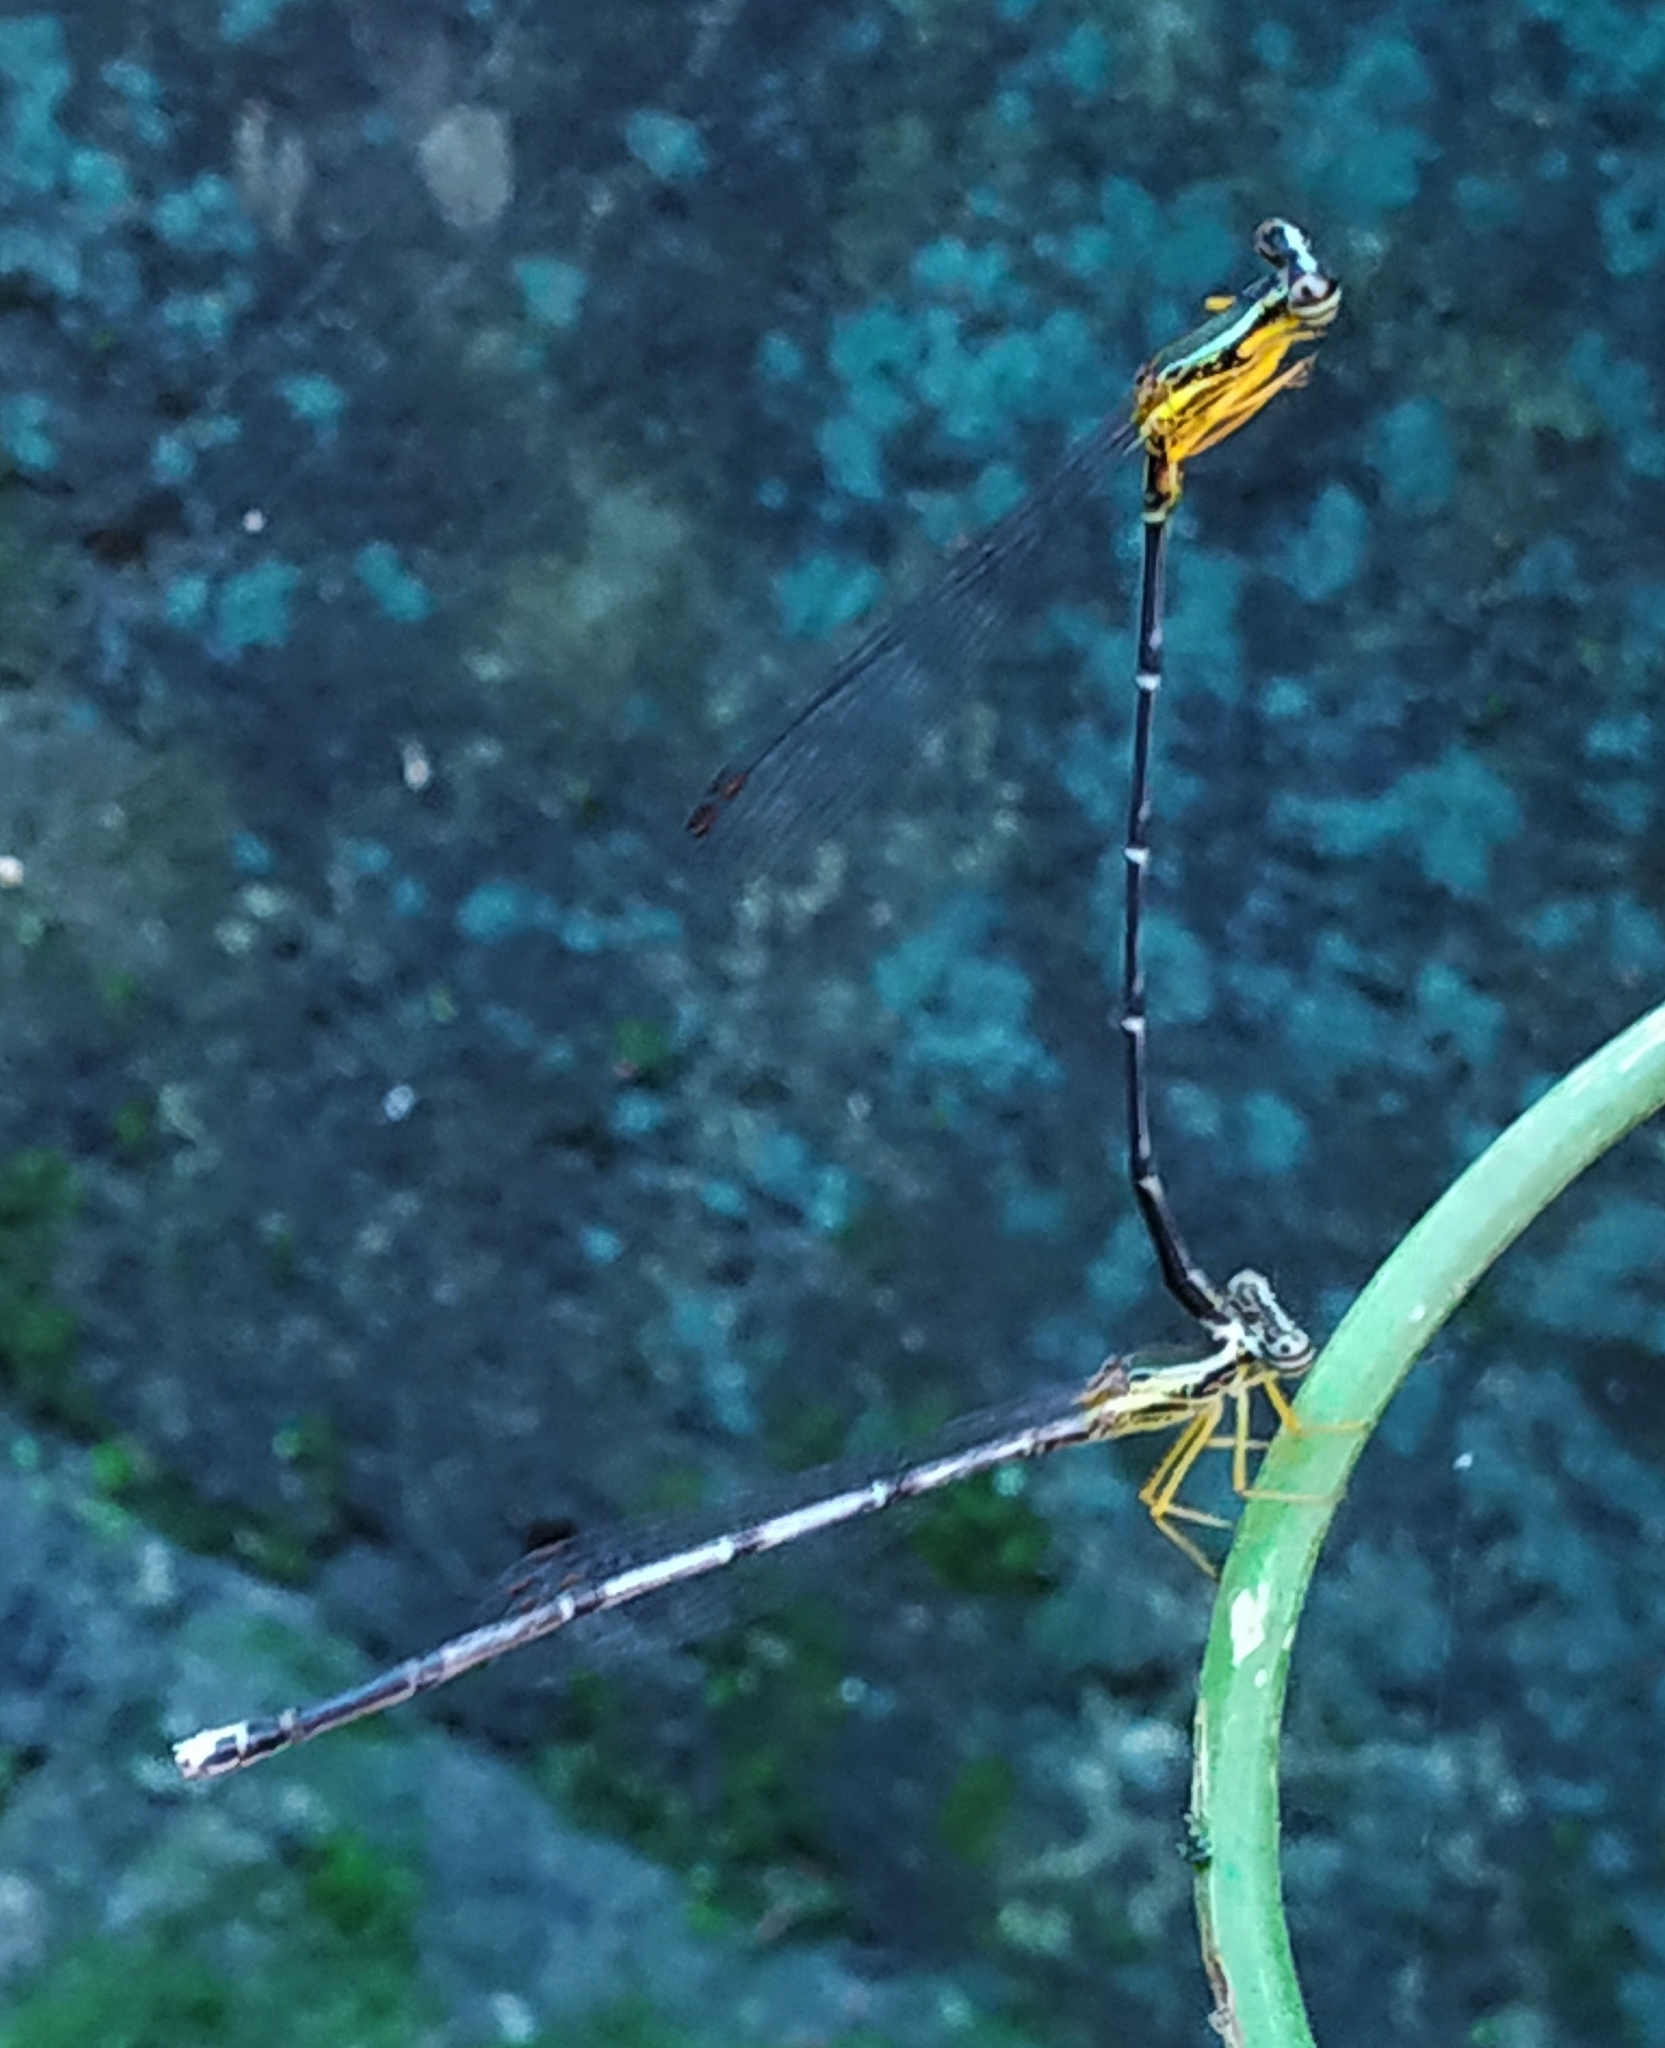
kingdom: Animalia
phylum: Arthropoda
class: Insecta
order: Odonata
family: Platycnemididae
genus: Copera
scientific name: Copera vittata
